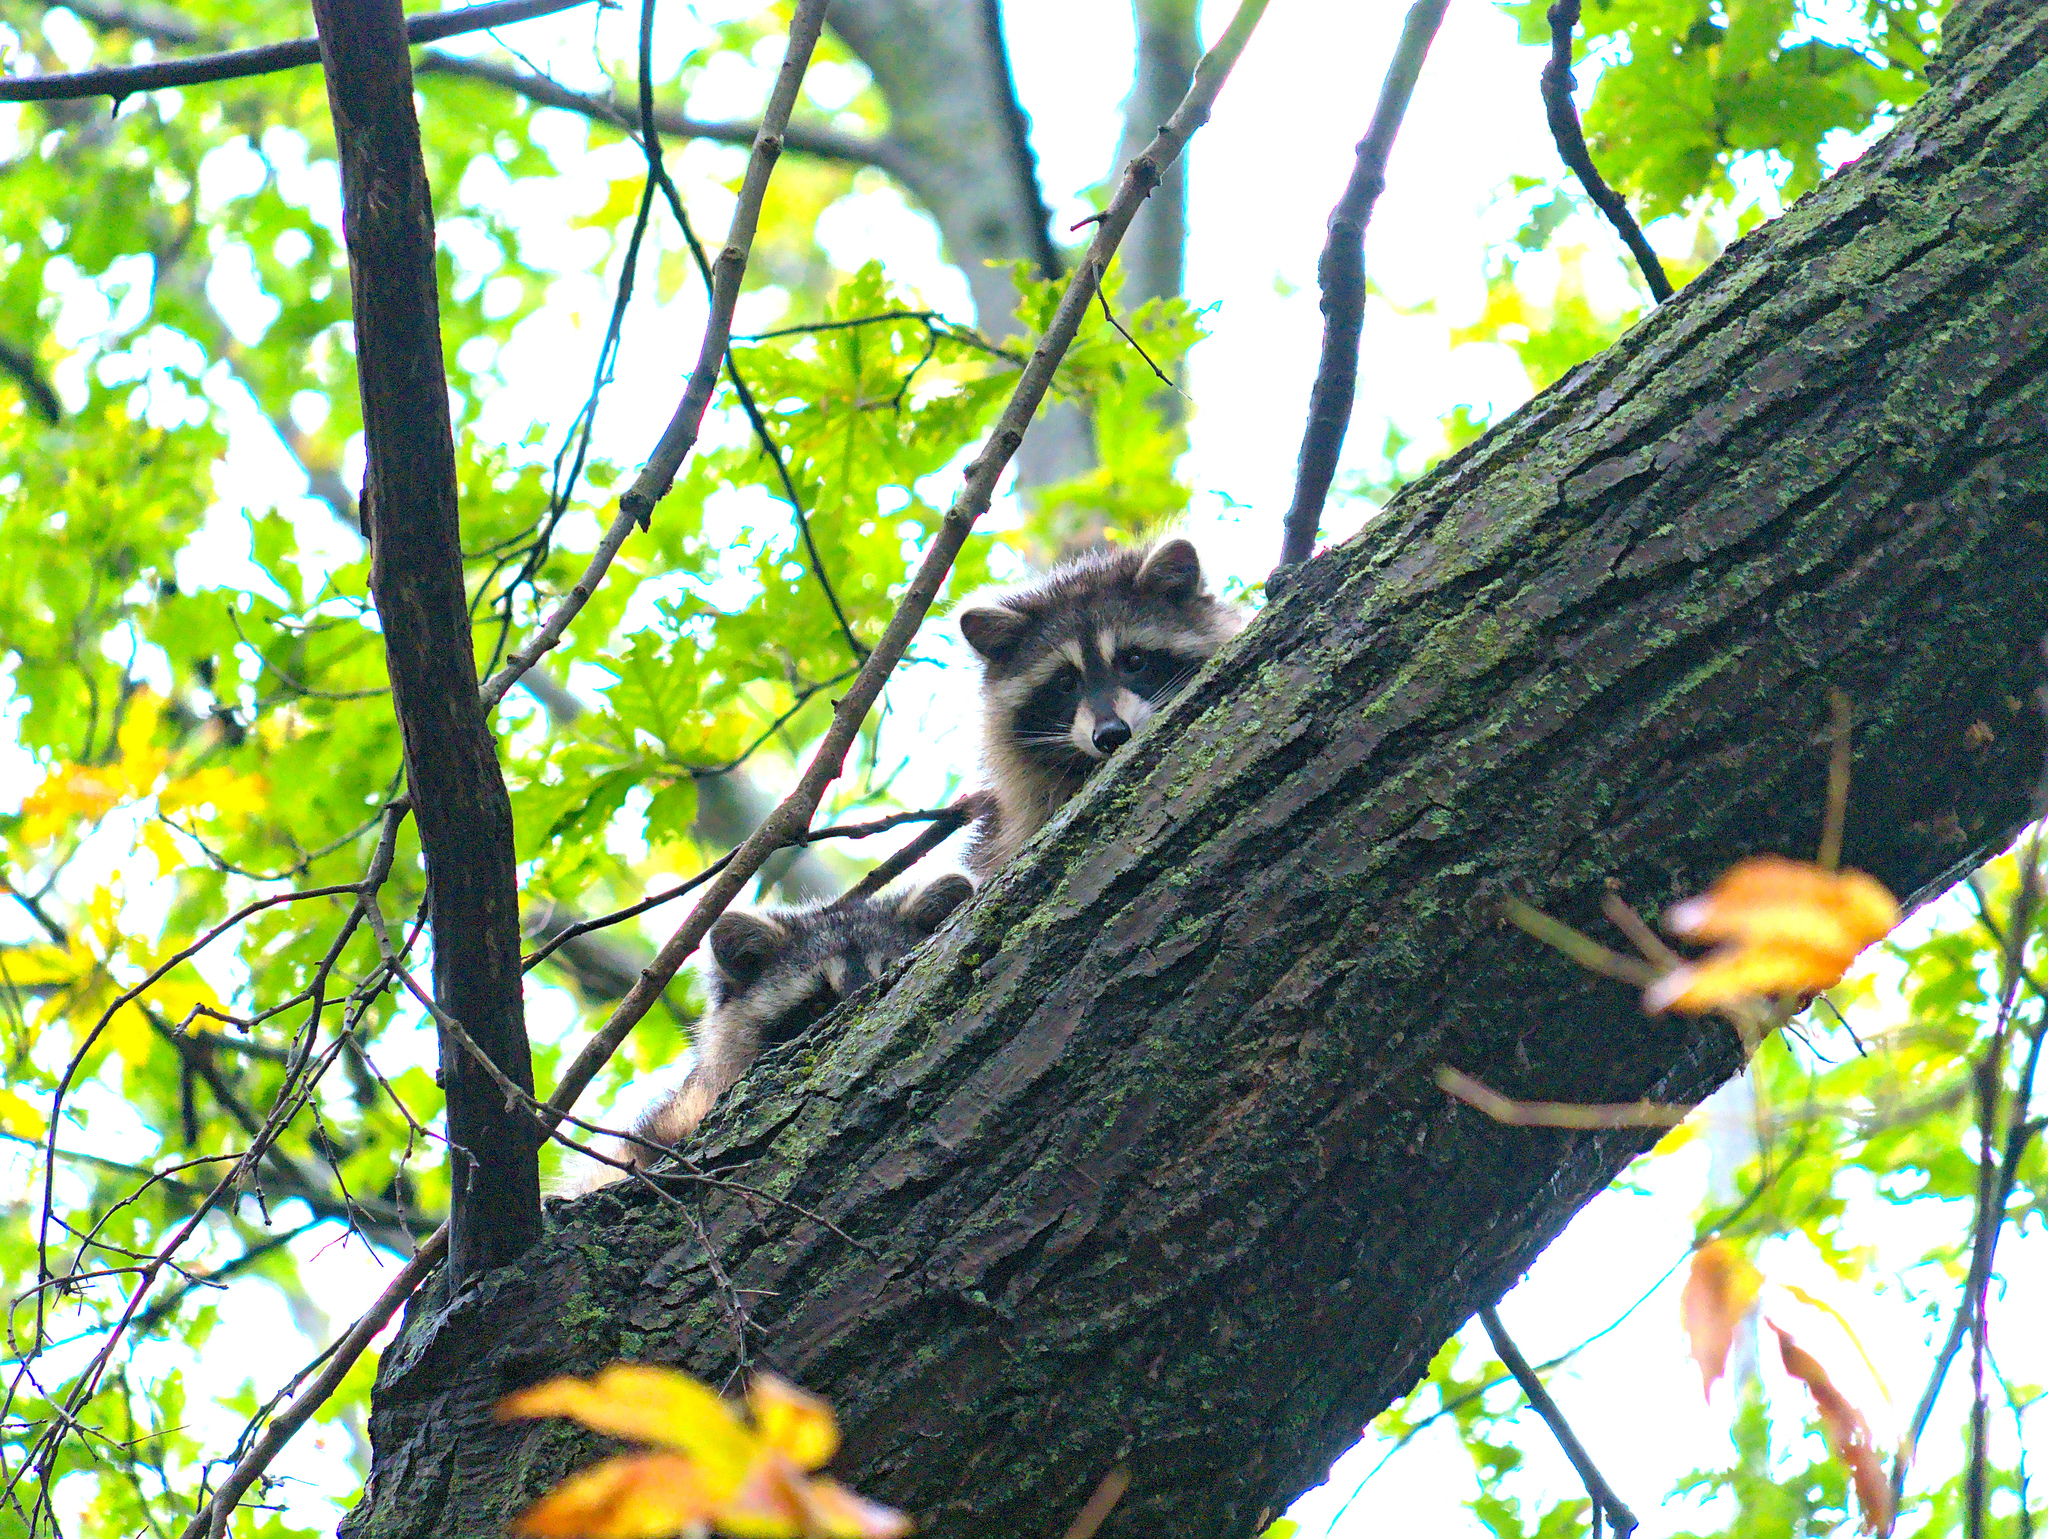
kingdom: Animalia
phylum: Chordata
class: Mammalia
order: Carnivora
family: Procyonidae
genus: Procyon
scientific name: Procyon lotor
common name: Raccoon
